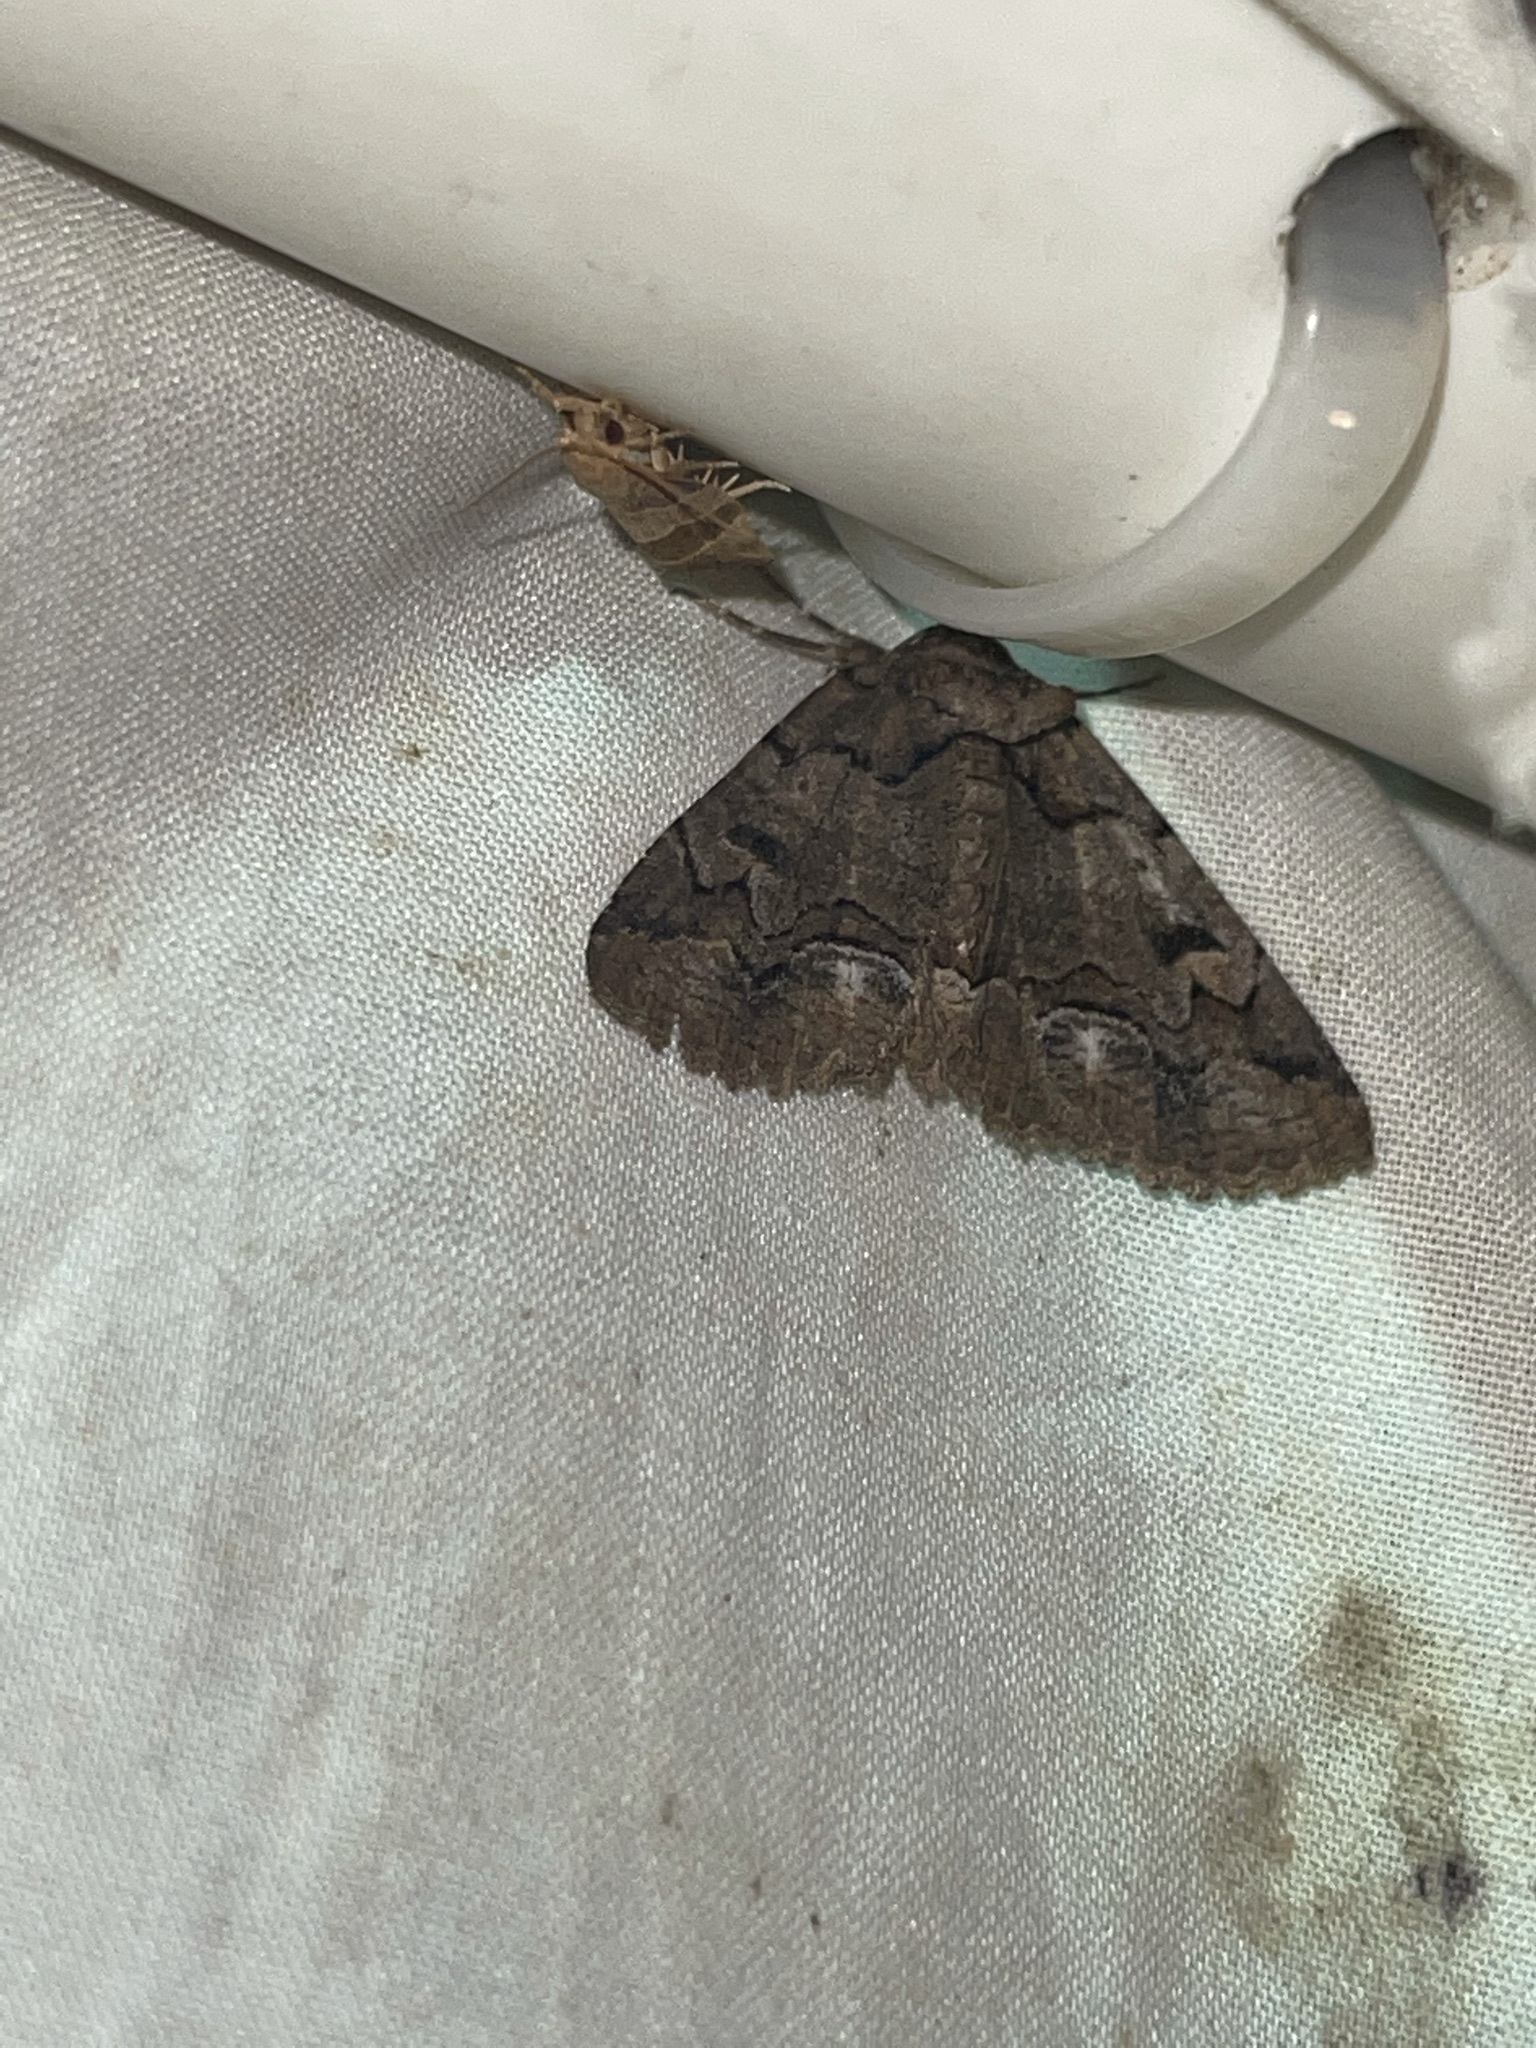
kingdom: Animalia
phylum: Arthropoda
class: Insecta
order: Lepidoptera
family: Erebidae
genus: Zale
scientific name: Zale helata
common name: Brown-spotted zale moth
